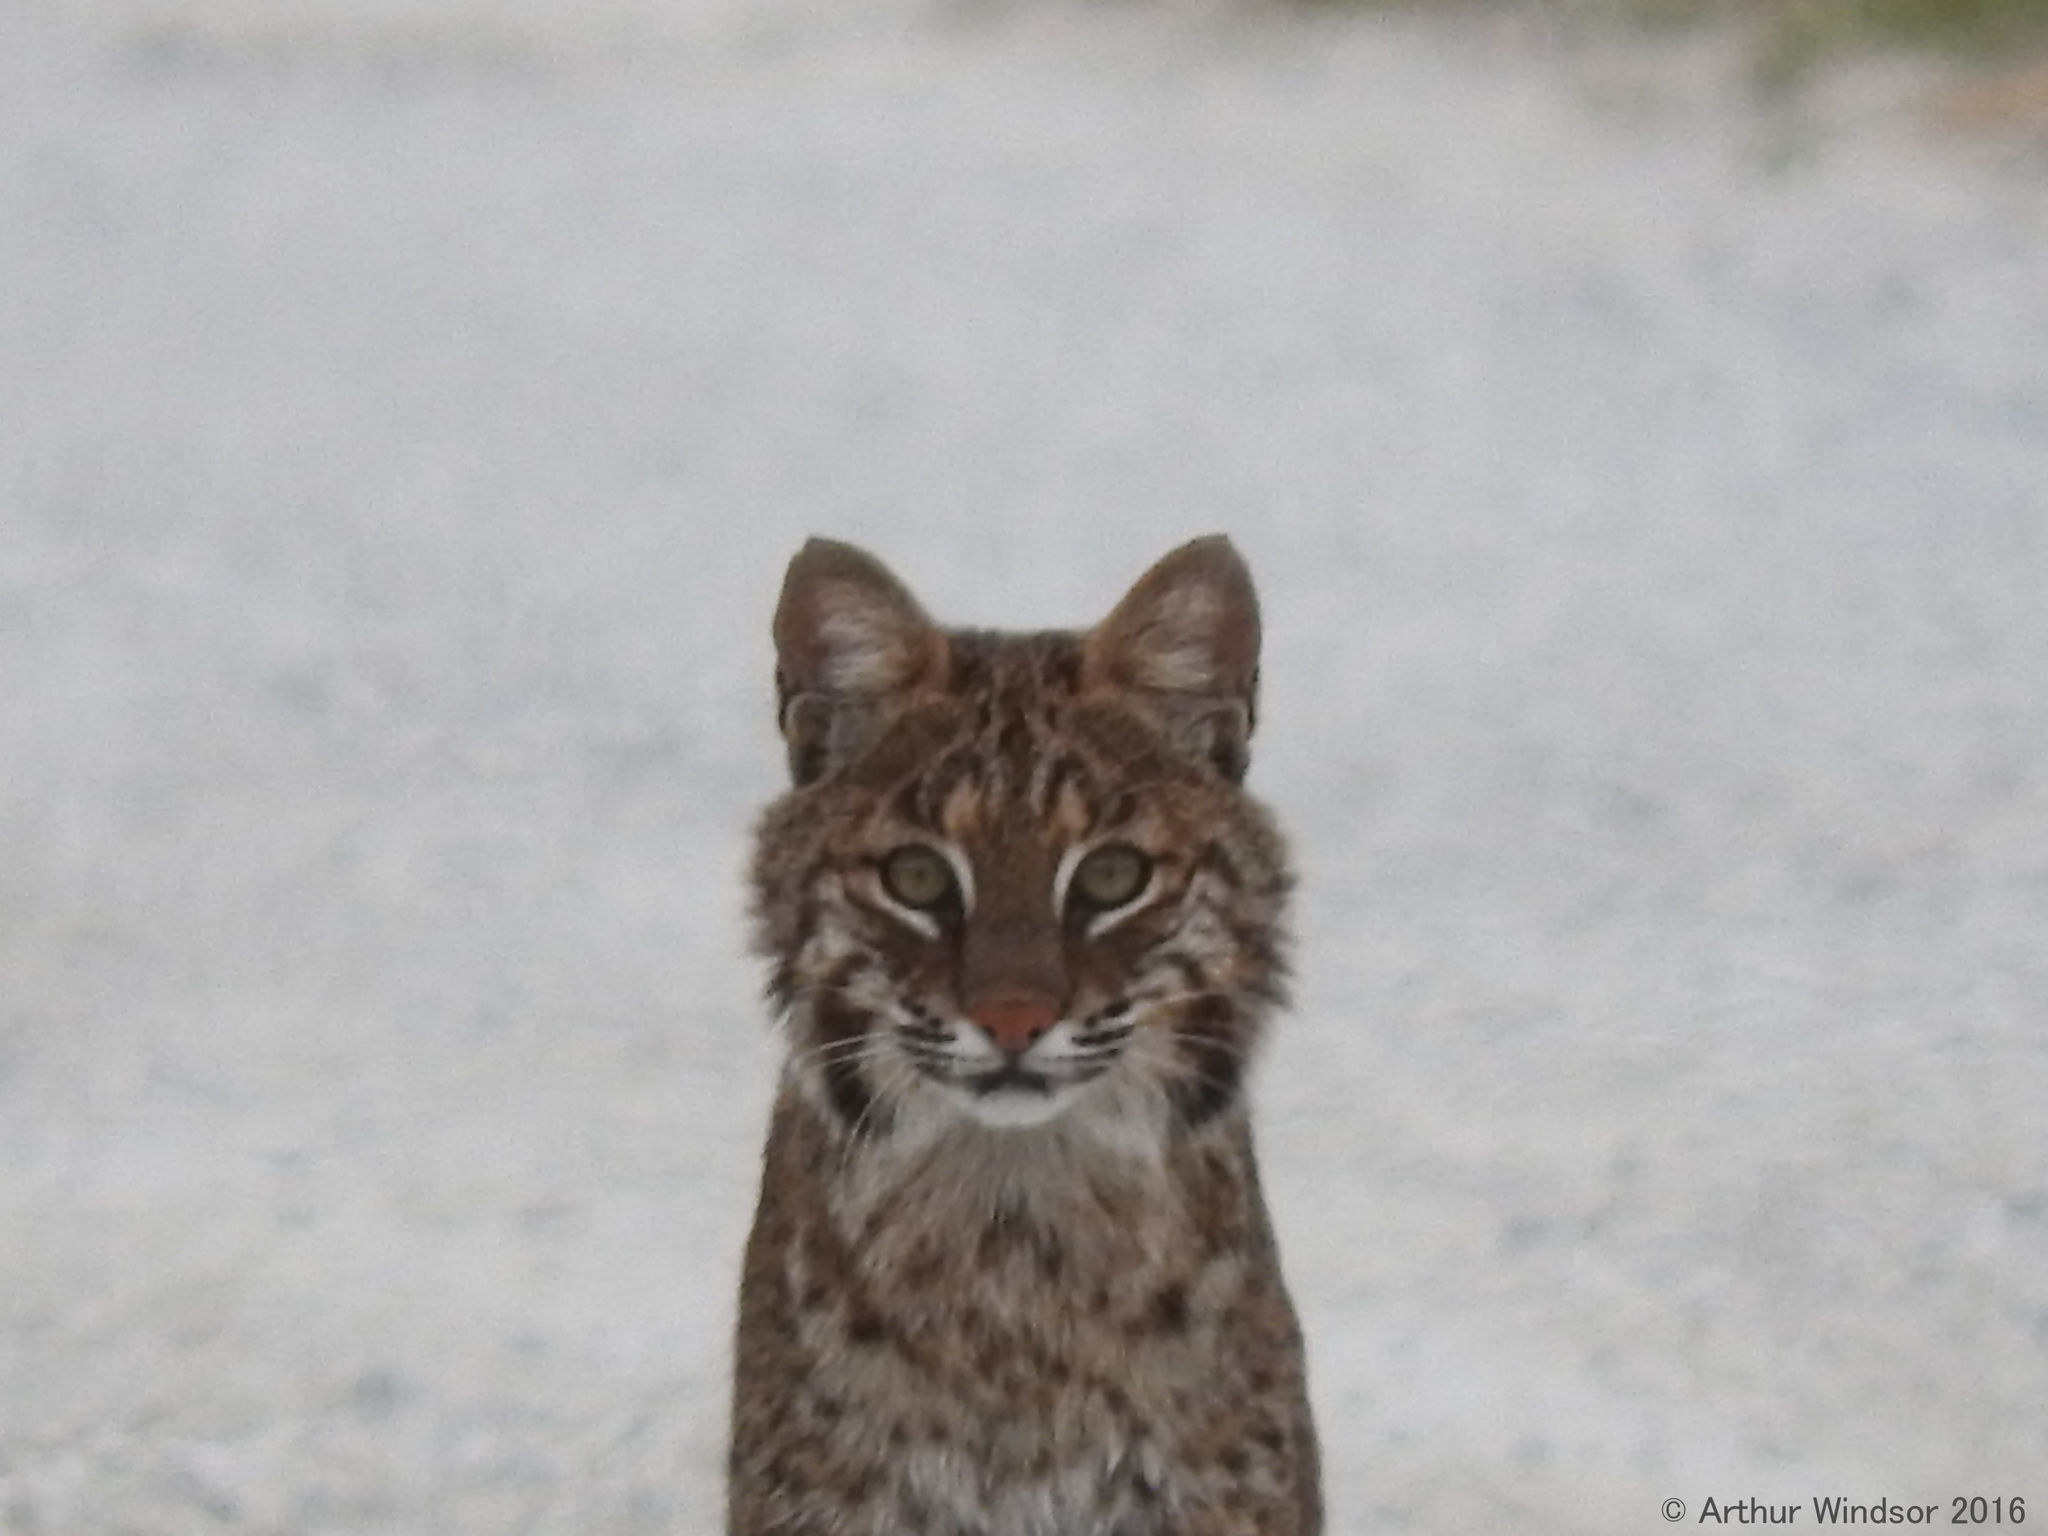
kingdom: Animalia
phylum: Chordata
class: Mammalia
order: Carnivora
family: Felidae
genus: Lynx
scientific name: Lynx rufus
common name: Bobcat
